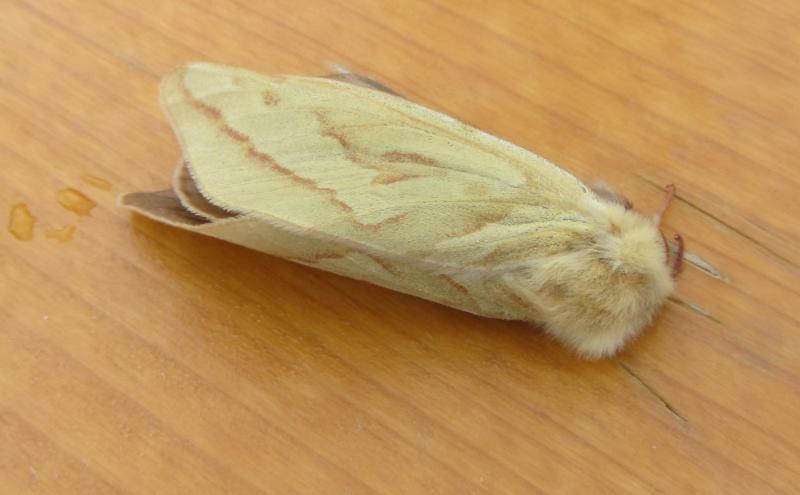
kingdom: Animalia
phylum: Arthropoda
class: Insecta
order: Lepidoptera
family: Hepialidae
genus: Hepialus
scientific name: Hepialus humuli
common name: Ghost moth
